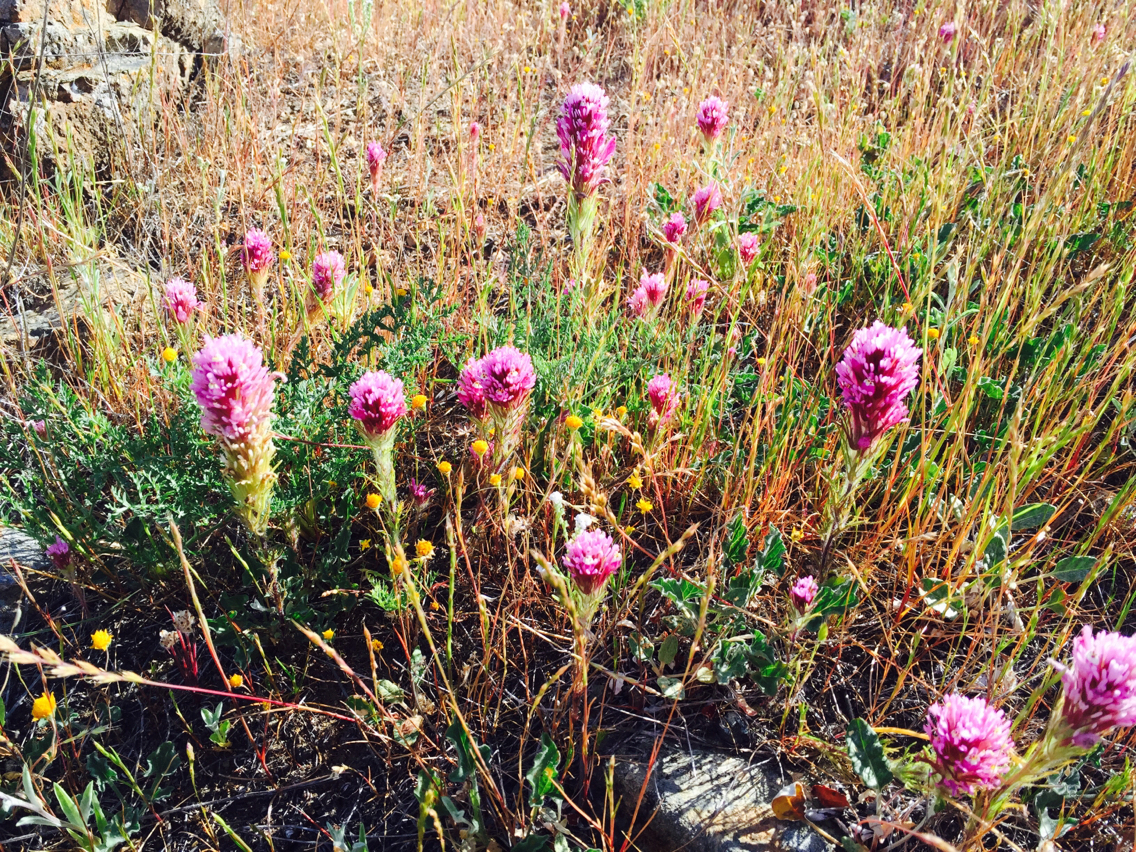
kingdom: Plantae
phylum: Tracheophyta
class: Magnoliopsida
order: Lamiales
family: Orobanchaceae
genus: Castilleja
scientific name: Castilleja exserta
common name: Purple owl-clover
